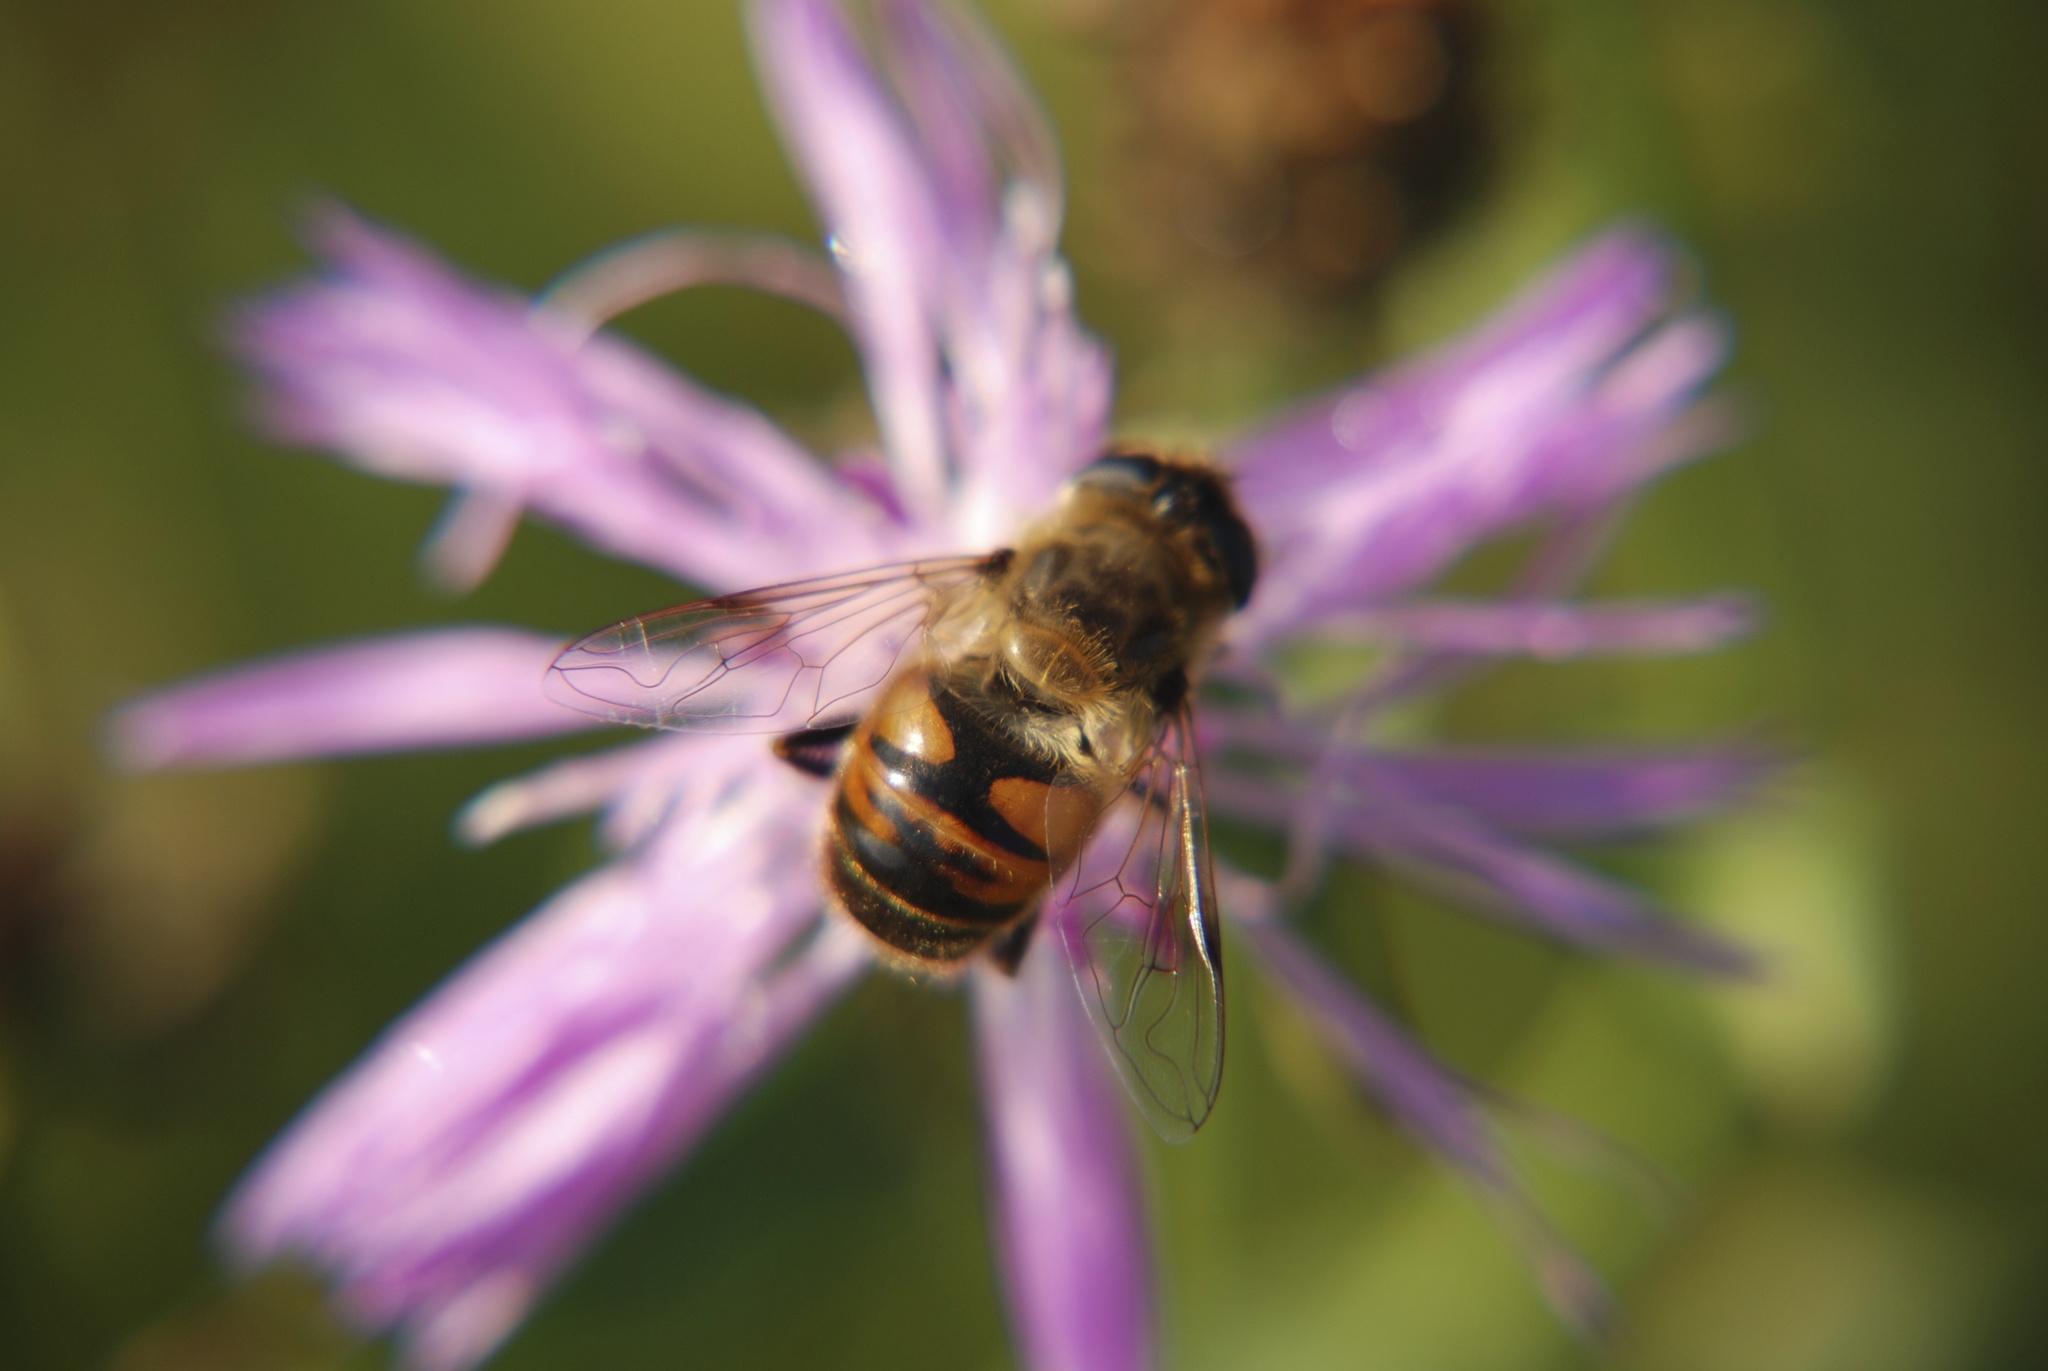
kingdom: Animalia
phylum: Arthropoda
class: Insecta
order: Diptera
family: Syrphidae
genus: Eristalis
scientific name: Eristalis tenax
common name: Drone fly
